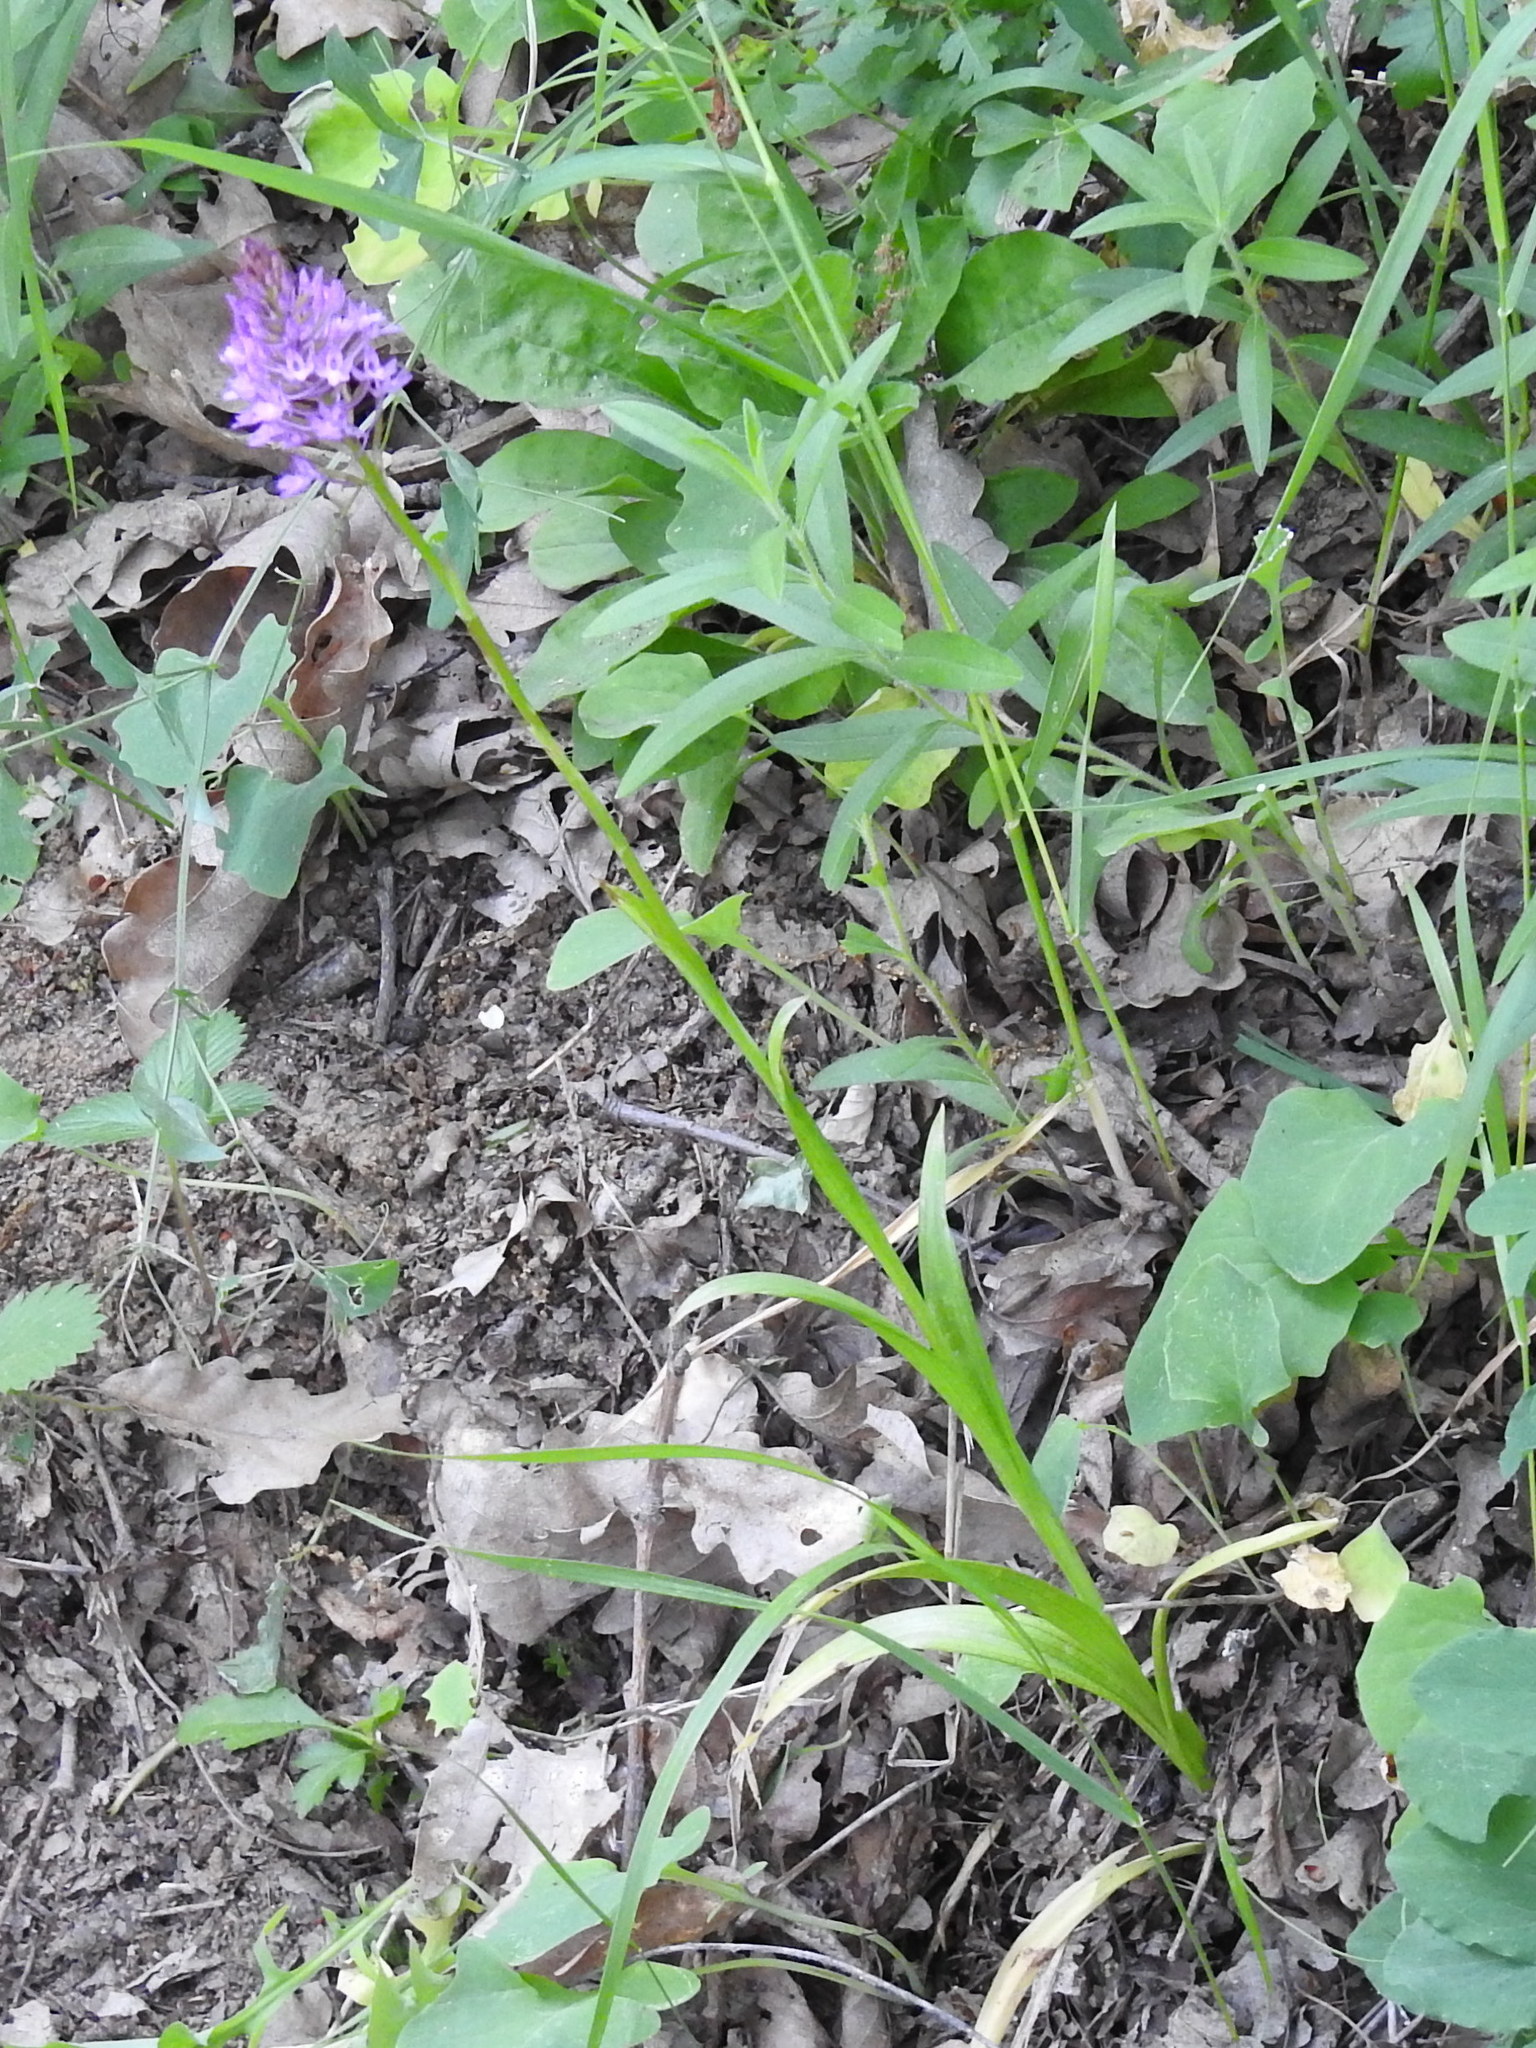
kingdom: Plantae
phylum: Tracheophyta
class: Liliopsida
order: Asparagales
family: Orchidaceae
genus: Anacamptis
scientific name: Anacamptis pyramidalis
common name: Pyramidal orchid
